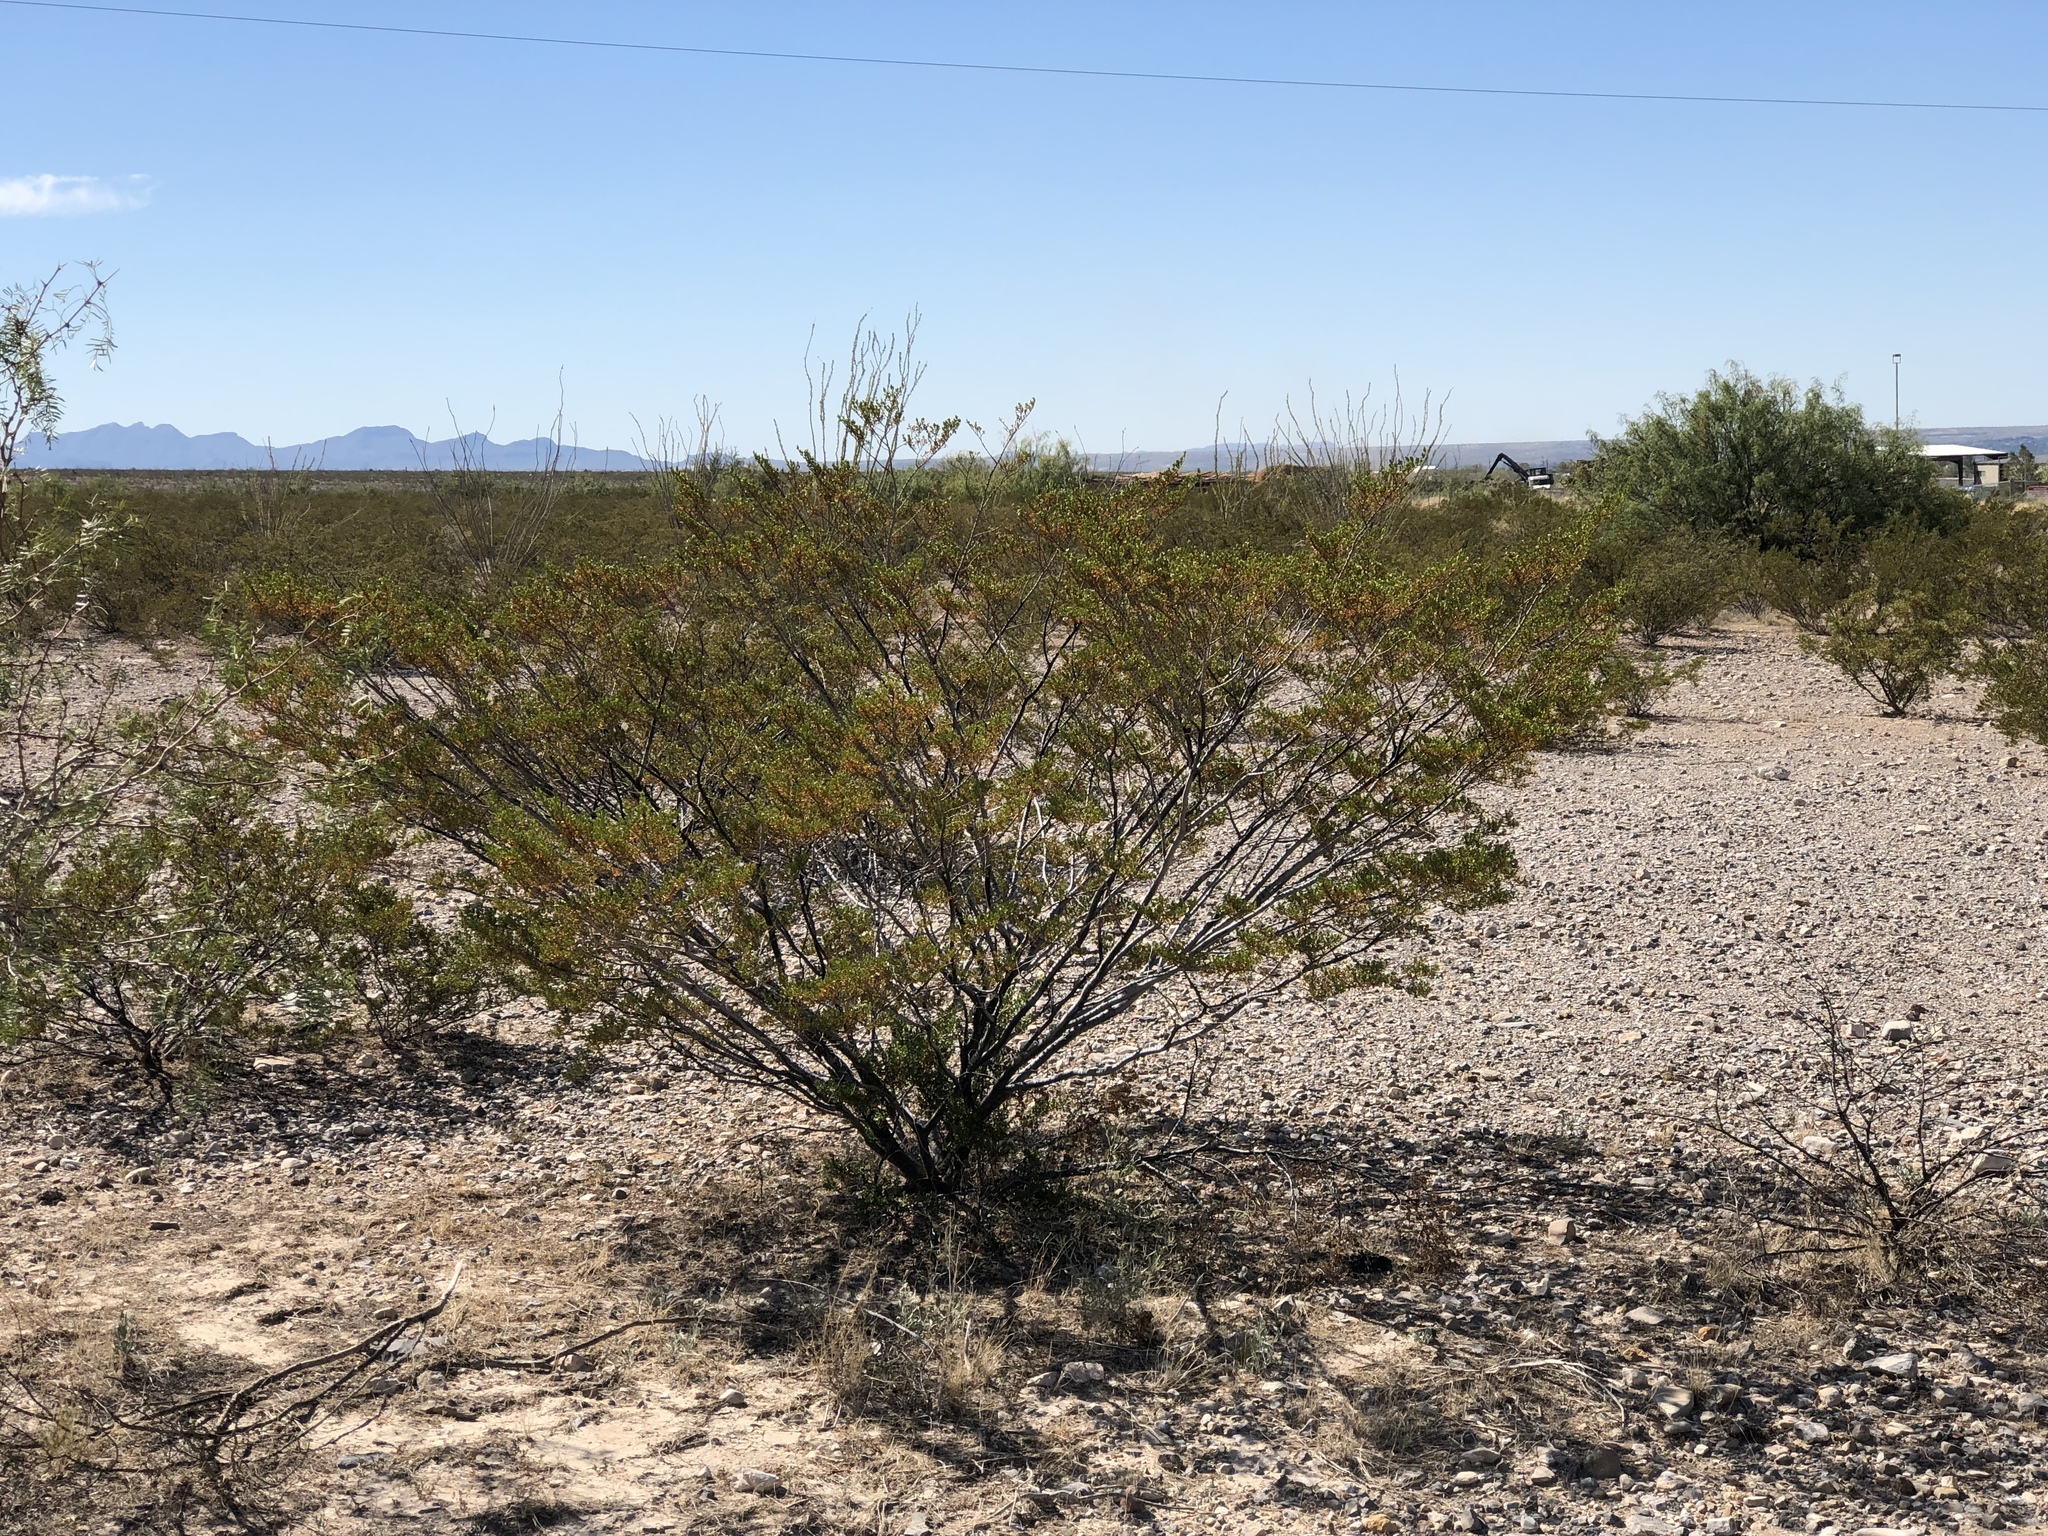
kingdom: Plantae
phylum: Tracheophyta
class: Magnoliopsida
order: Zygophyllales
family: Zygophyllaceae
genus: Larrea
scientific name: Larrea tridentata
